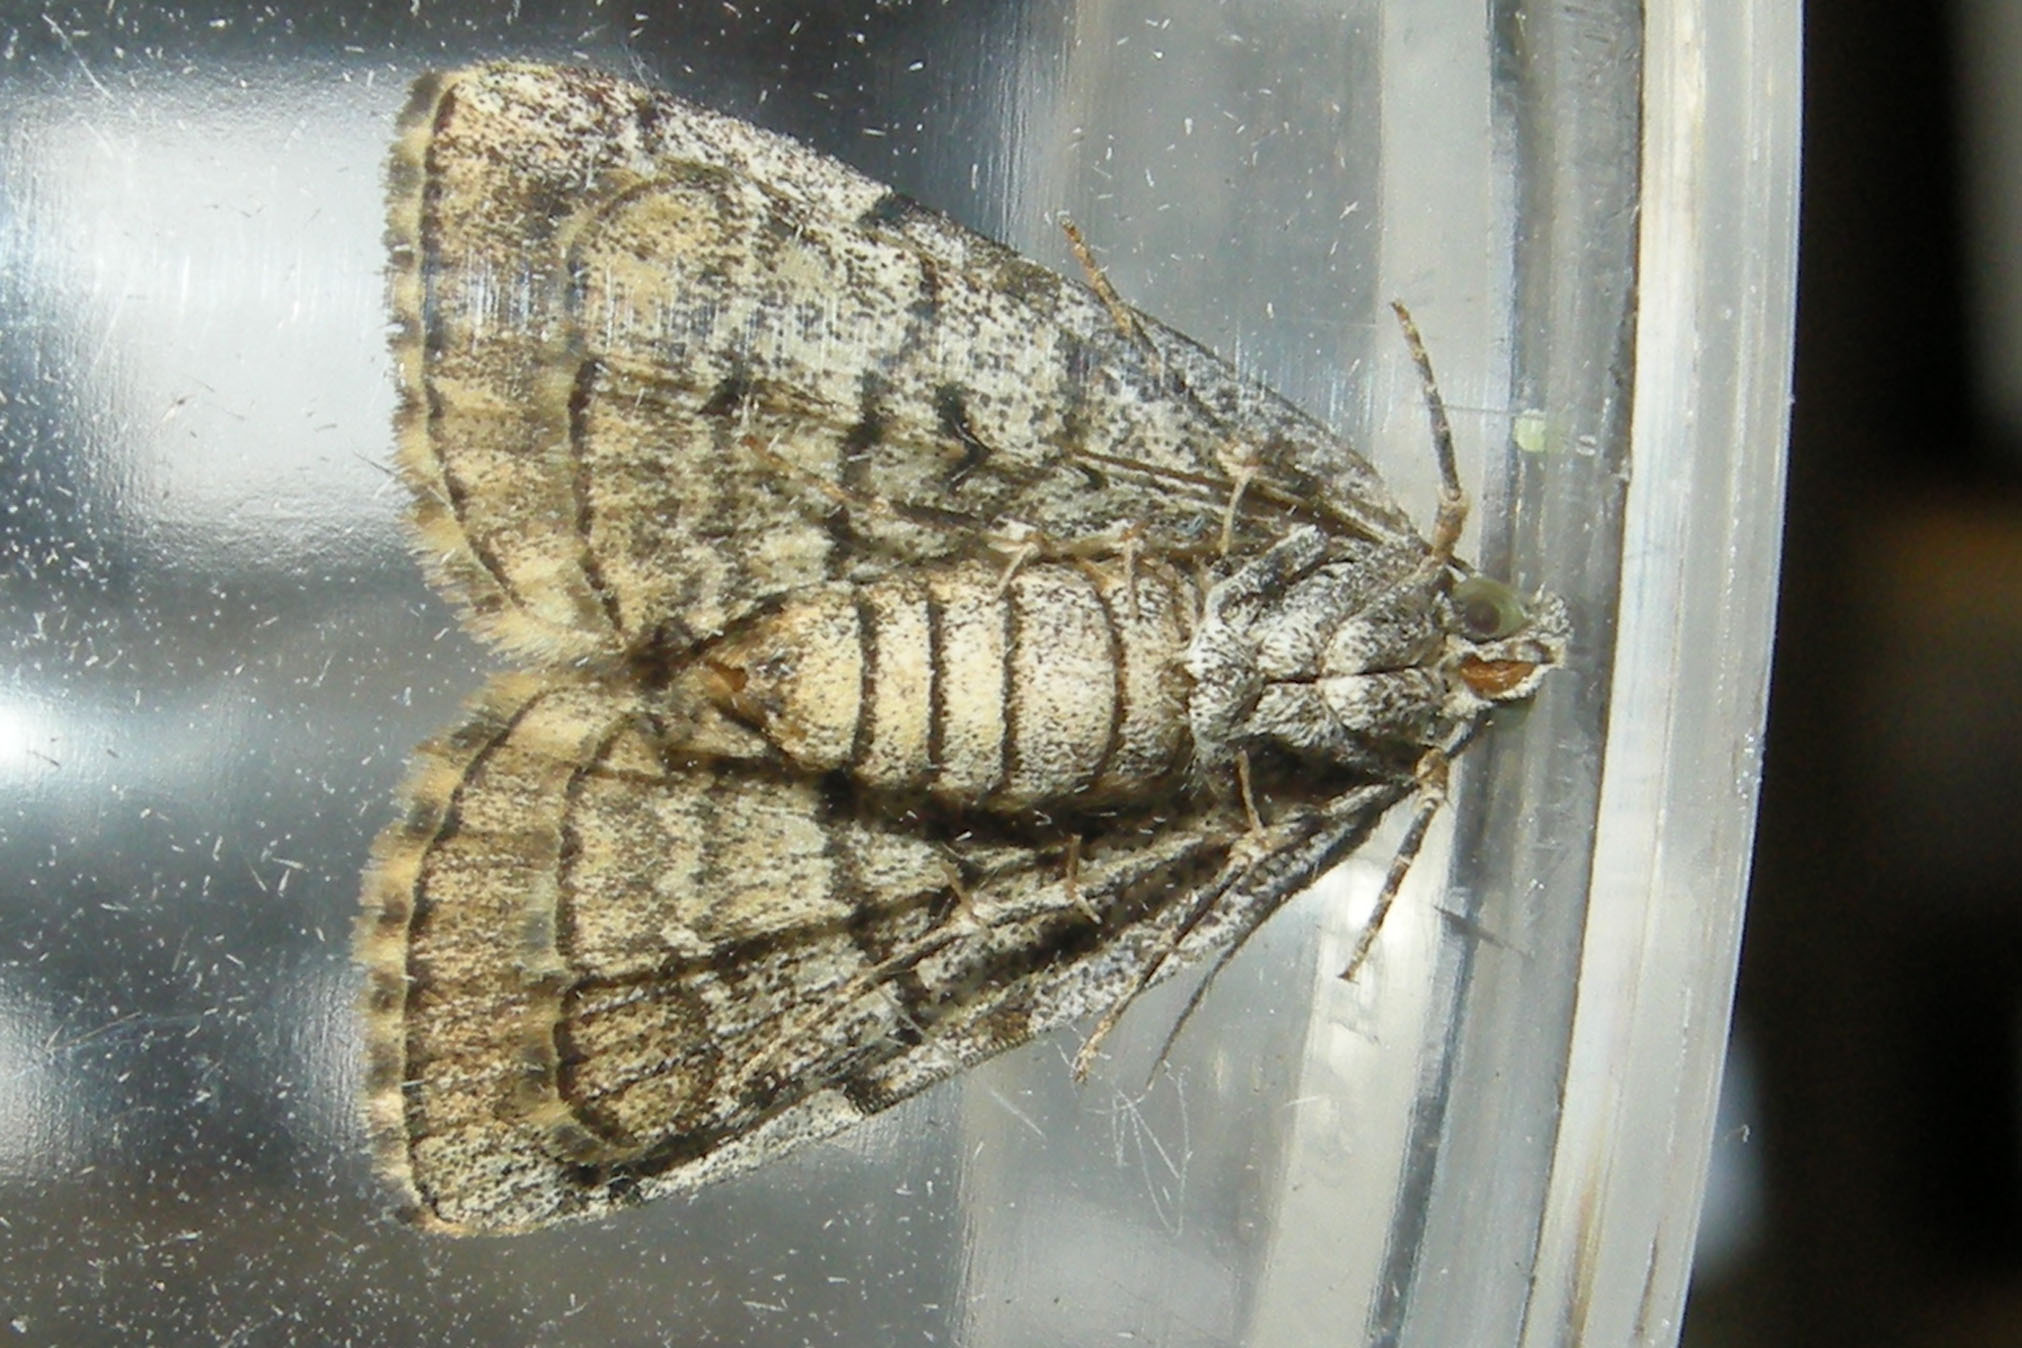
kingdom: Animalia
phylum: Arthropoda
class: Insecta
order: Lepidoptera
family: Erebidae
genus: Idia
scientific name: Idia americalis
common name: American idia moth
